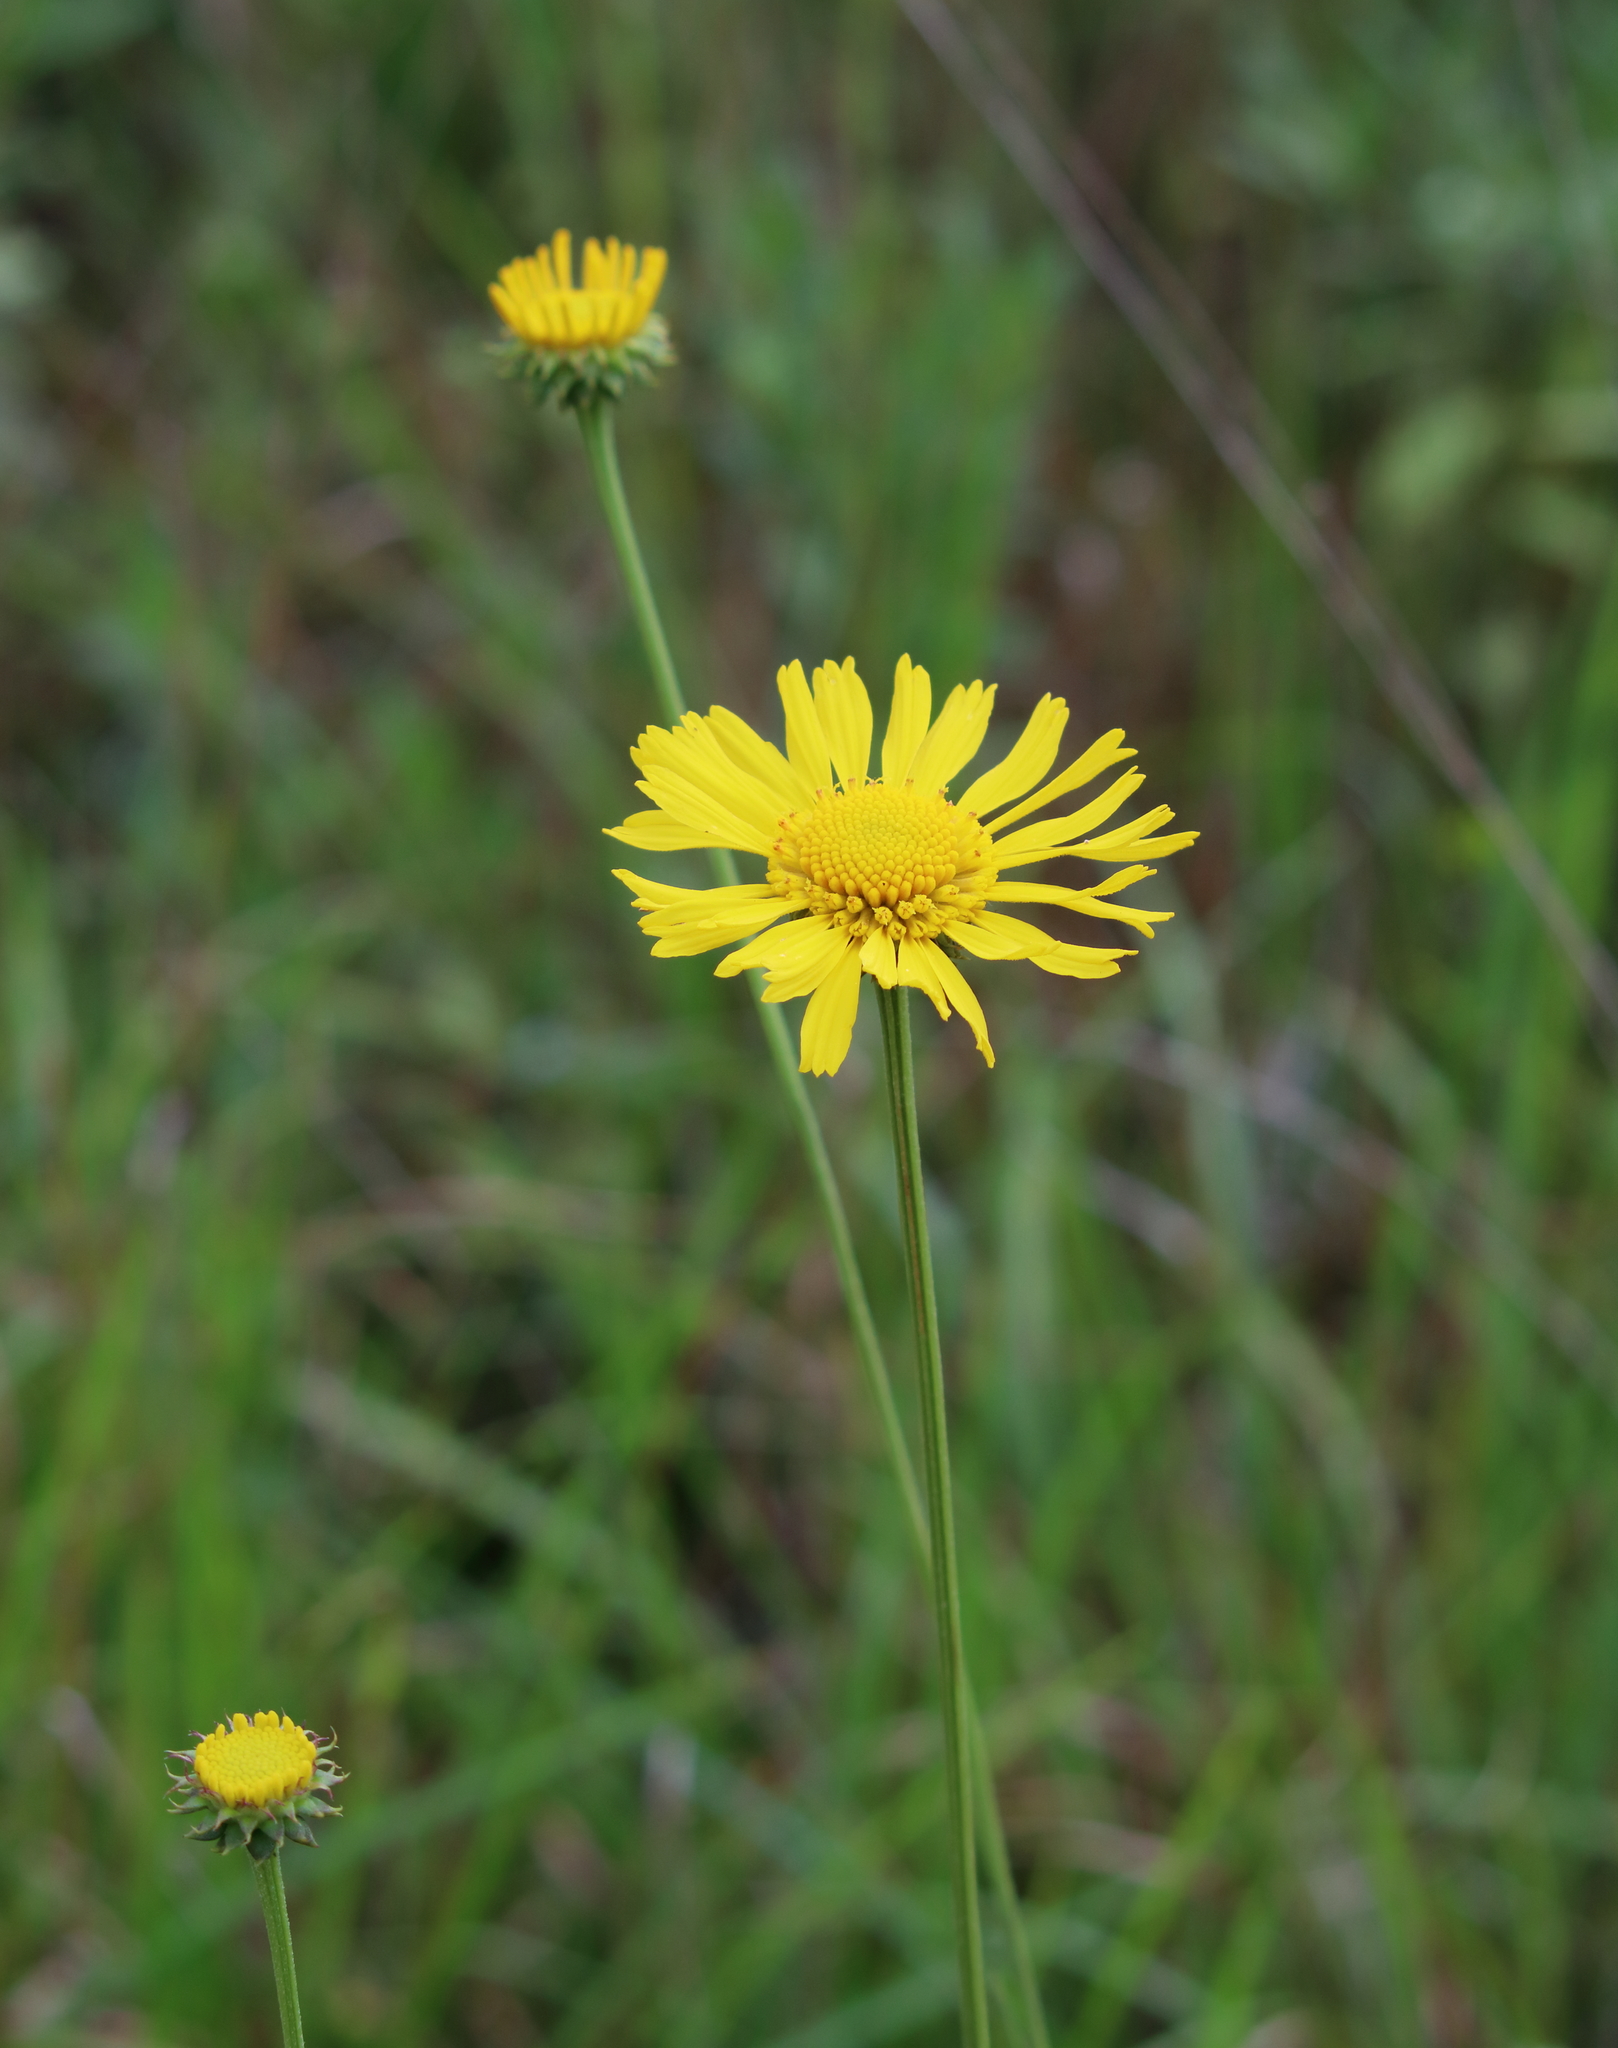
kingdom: Plantae
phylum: Tracheophyta
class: Magnoliopsida
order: Asterales
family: Asteraceae
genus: Balduina
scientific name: Balduina uniflora
